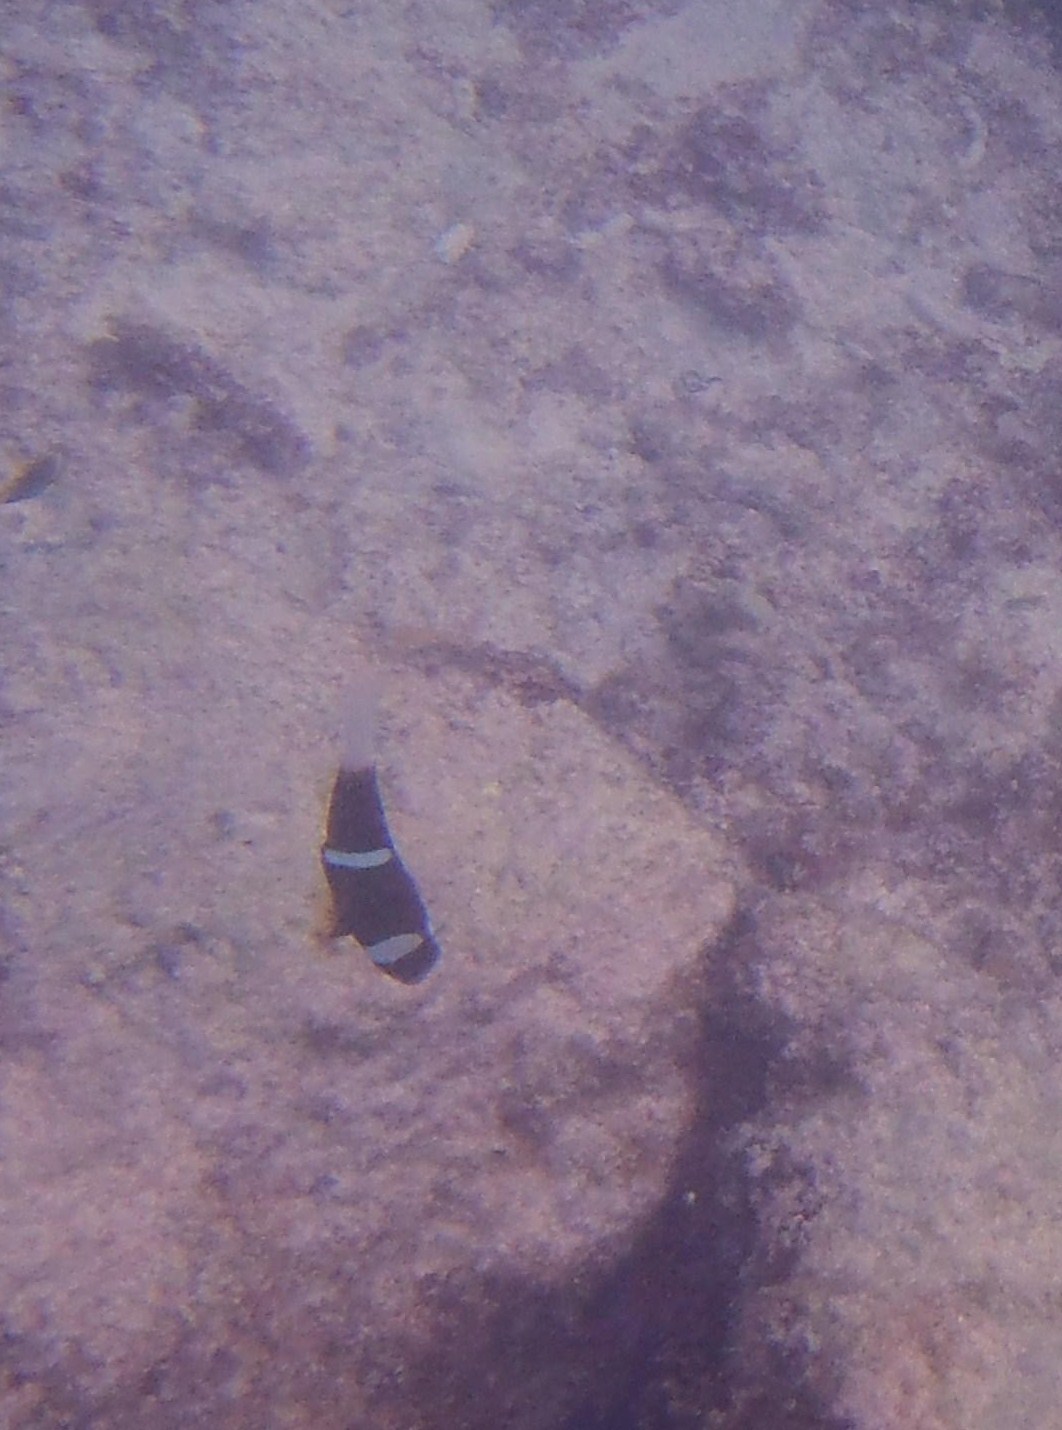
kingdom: Animalia
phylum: Chordata
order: Perciformes
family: Pomacentridae
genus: Amphiprion
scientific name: Amphiprion akindynos
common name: Barrier reef anemonefish
